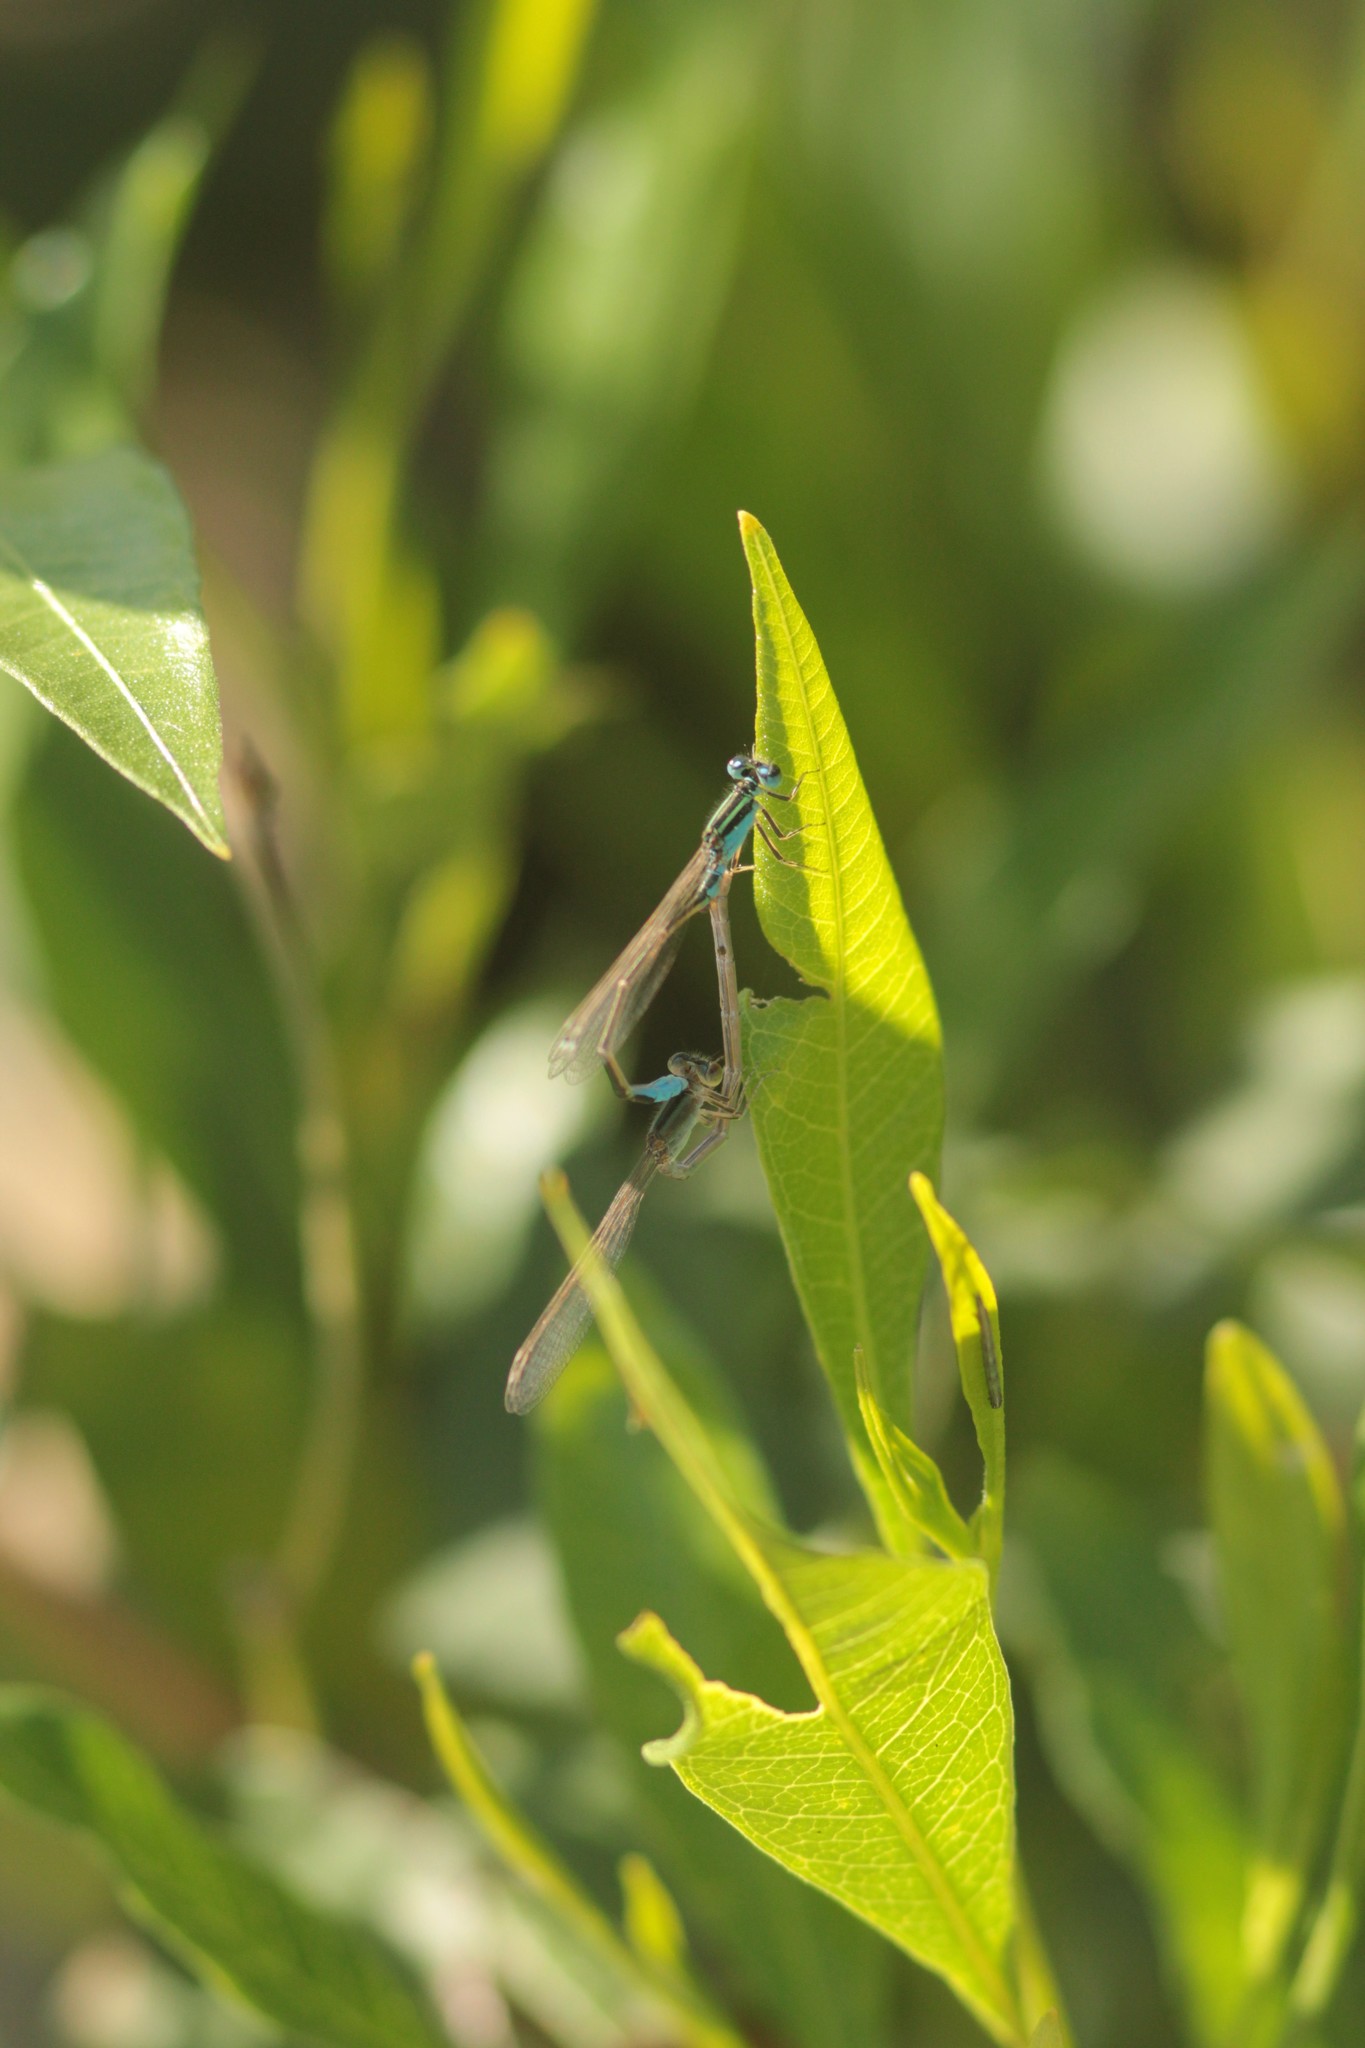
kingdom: Animalia
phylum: Arthropoda
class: Insecta
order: Odonata
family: Coenagrionidae
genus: Ischnura
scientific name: Ischnura fluviatilis
